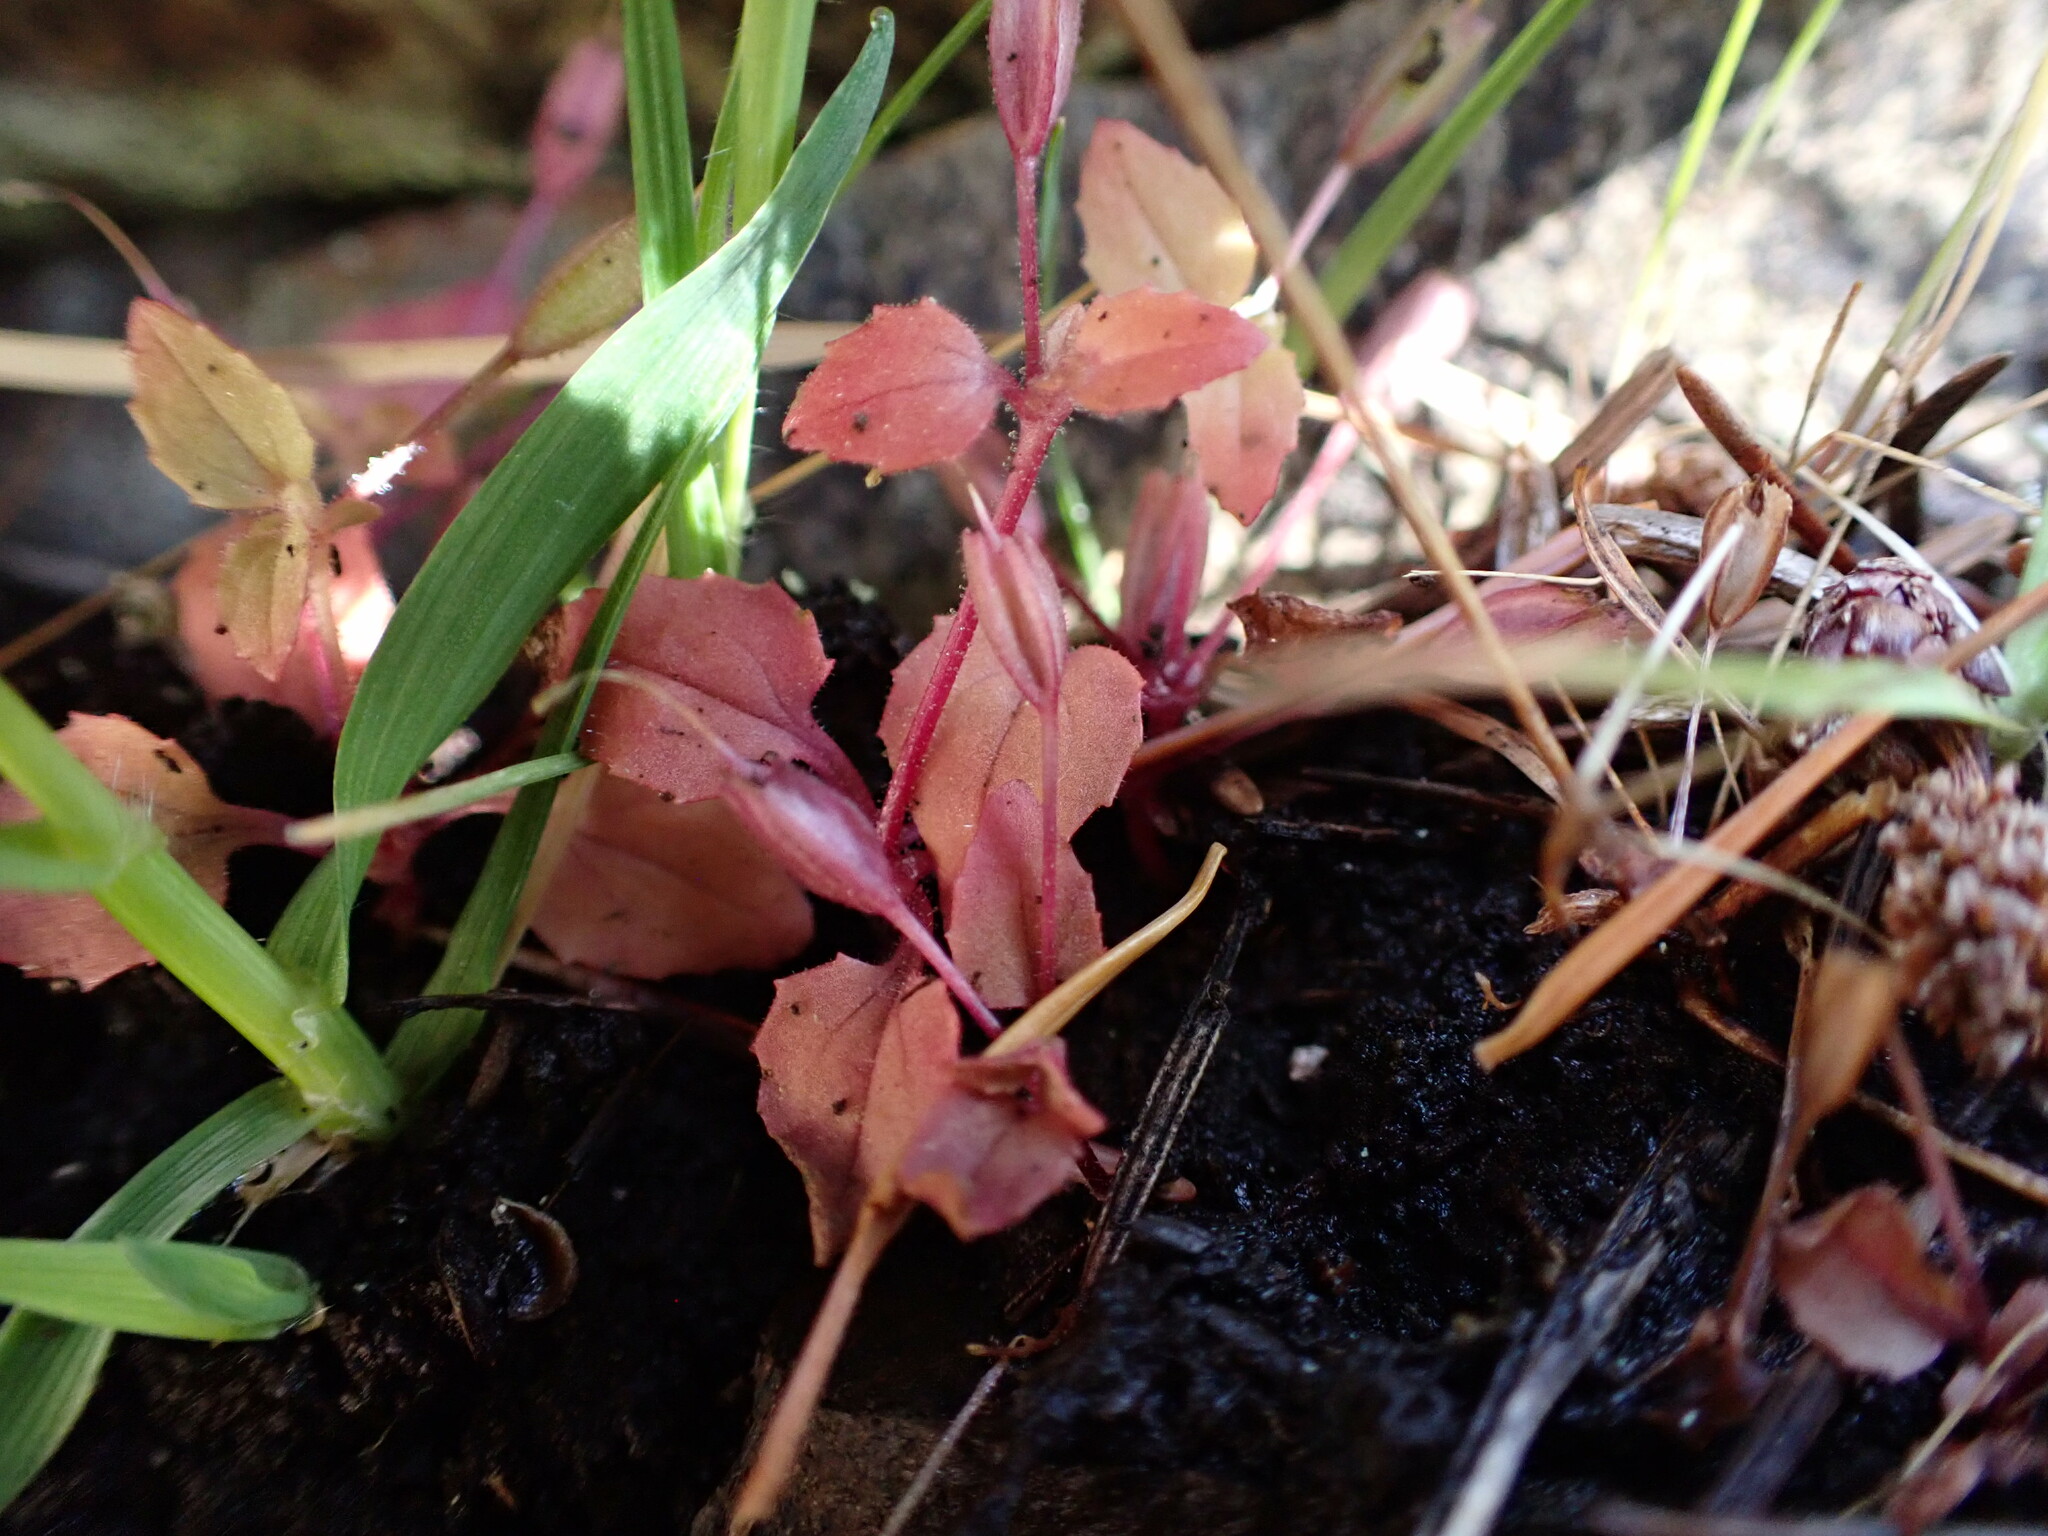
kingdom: Plantae
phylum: Tracheophyta
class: Magnoliopsida
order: Lamiales
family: Phrymaceae
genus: Erythranthe
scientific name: Erythranthe alsinoides
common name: Chickweed monkeyflower
